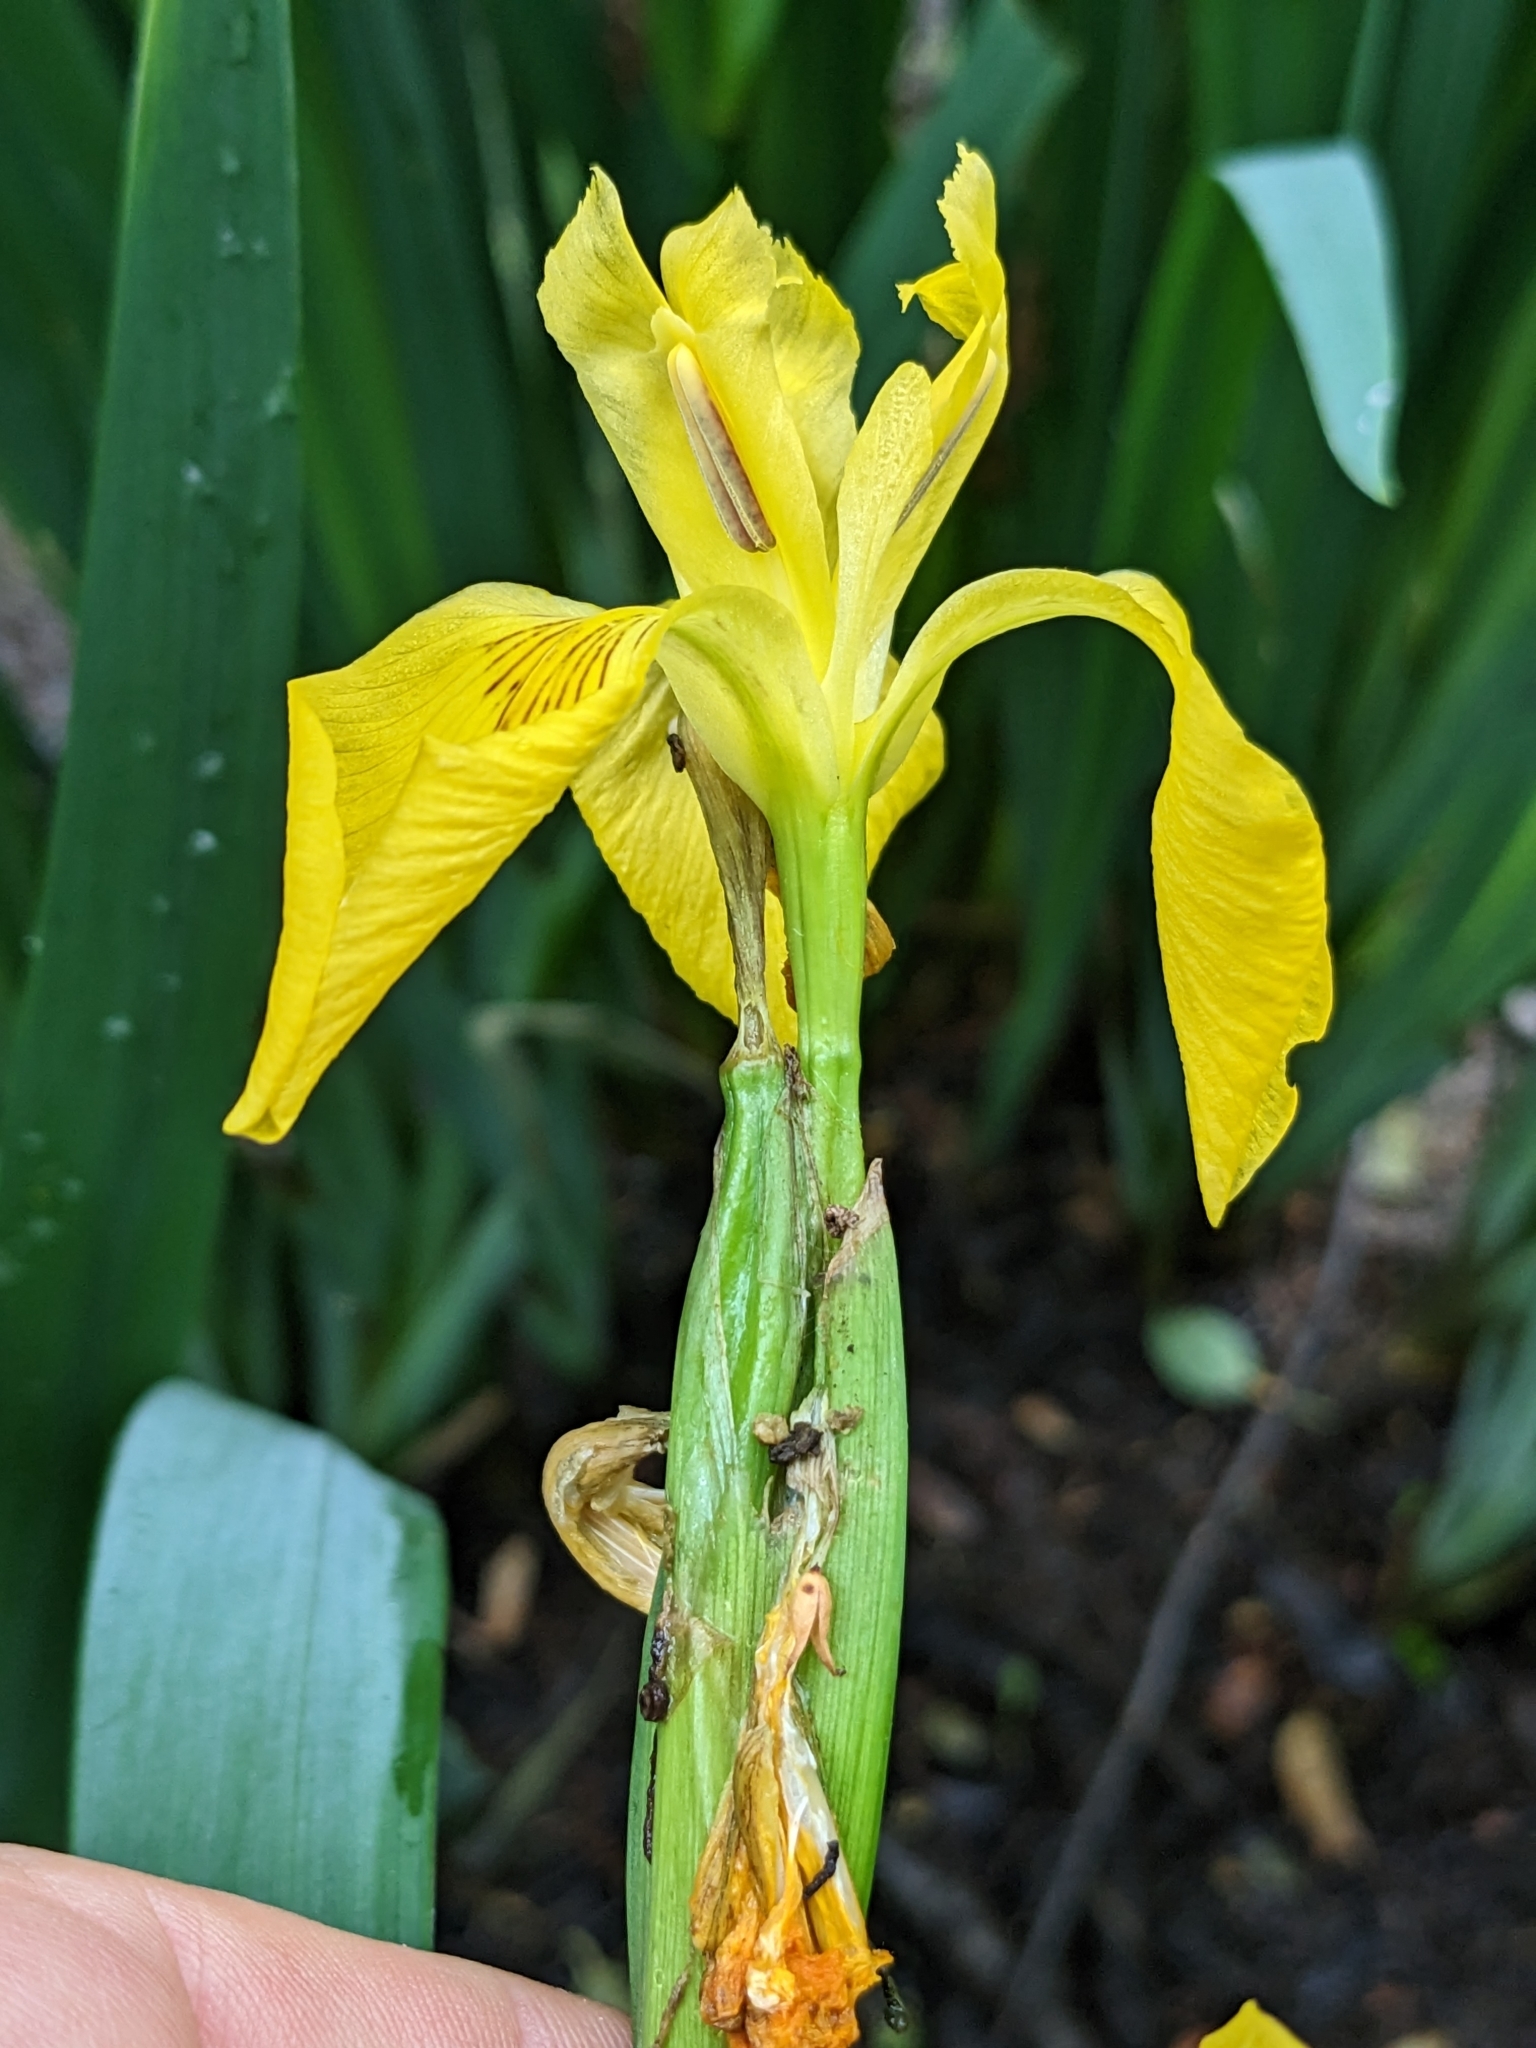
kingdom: Plantae
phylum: Tracheophyta
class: Liliopsida
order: Asparagales
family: Iridaceae
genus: Iris
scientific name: Iris pseudacorus
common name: Yellow flag
